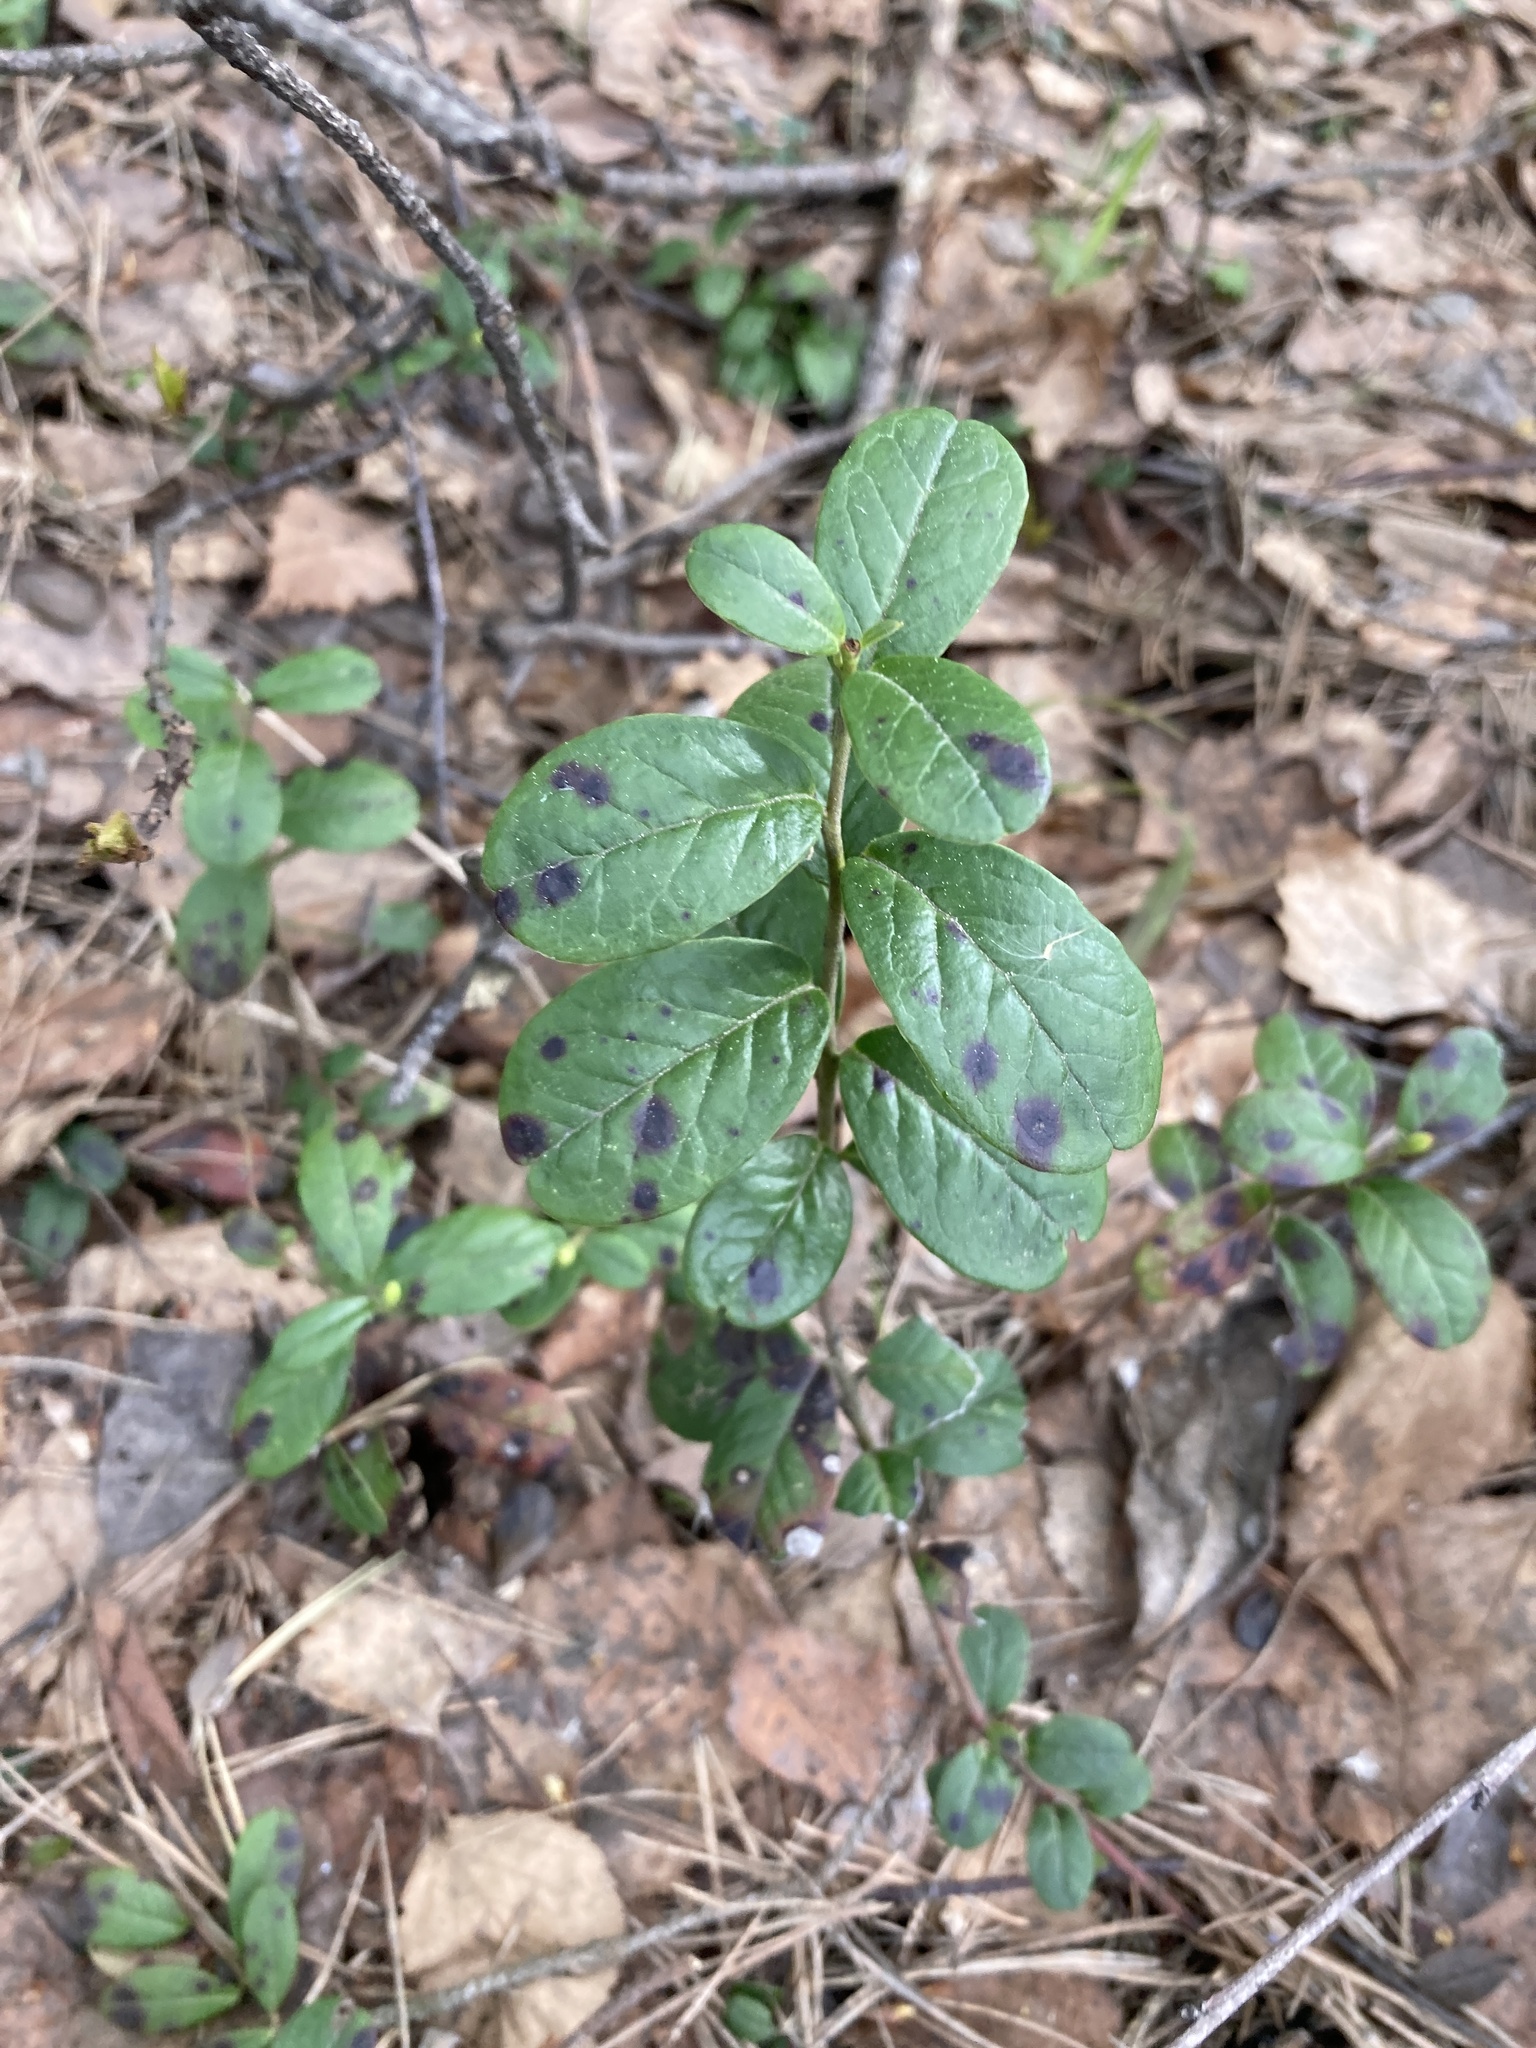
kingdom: Plantae
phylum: Tracheophyta
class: Magnoliopsida
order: Ericales
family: Ericaceae
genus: Vaccinium
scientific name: Vaccinium vitis-idaea
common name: Cowberry
